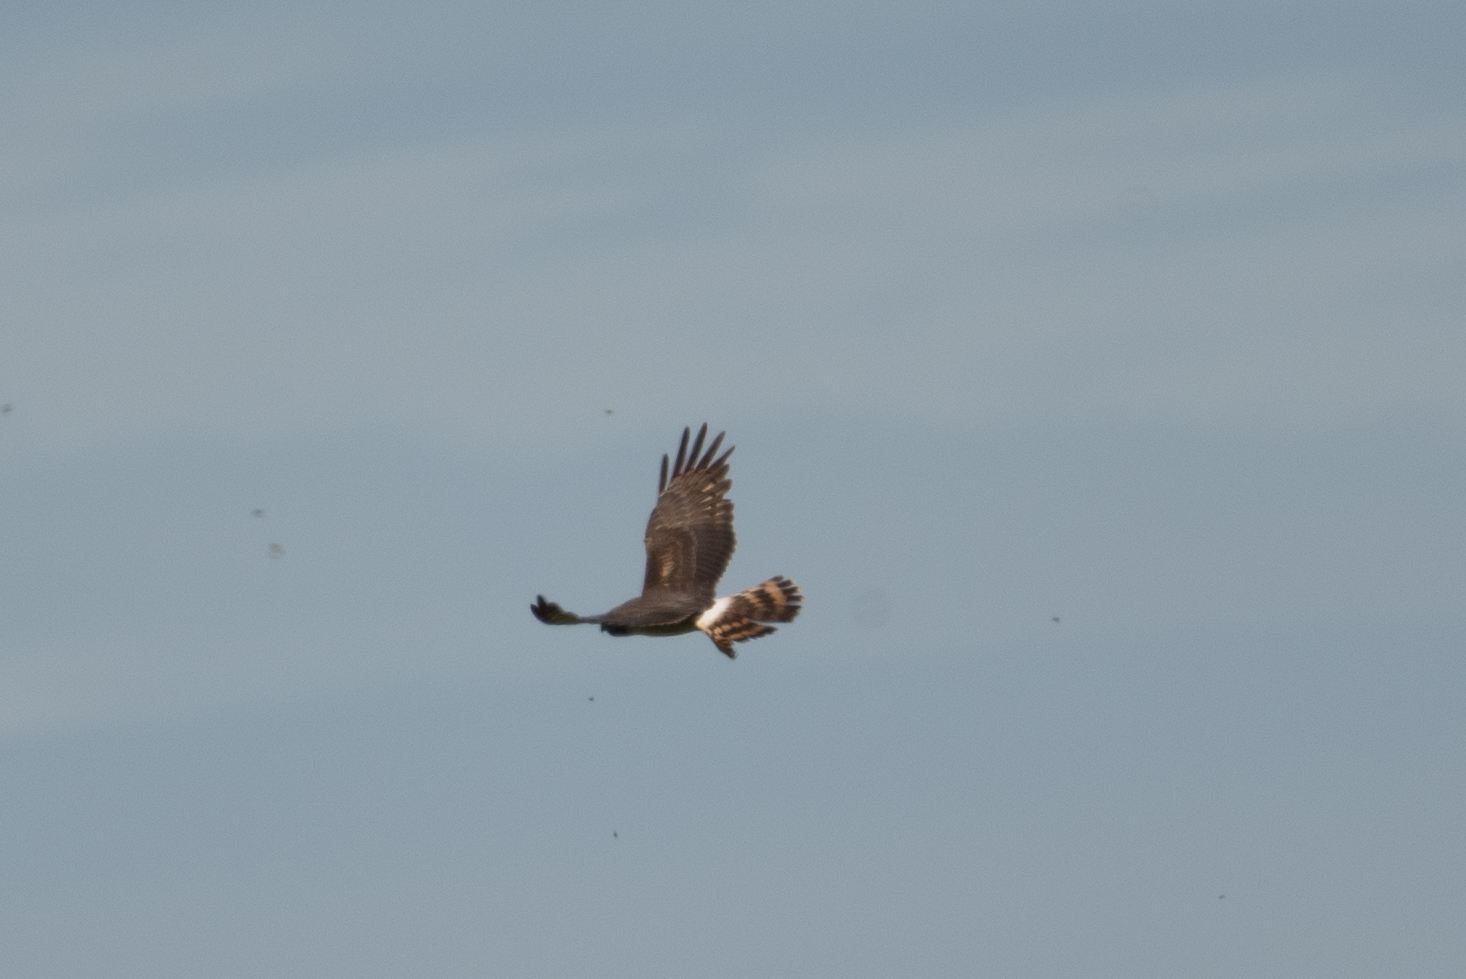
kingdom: Animalia
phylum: Chordata
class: Aves
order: Accipitriformes
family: Accipitridae
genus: Circus
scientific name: Circus cyaneus
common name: Hen harrier
